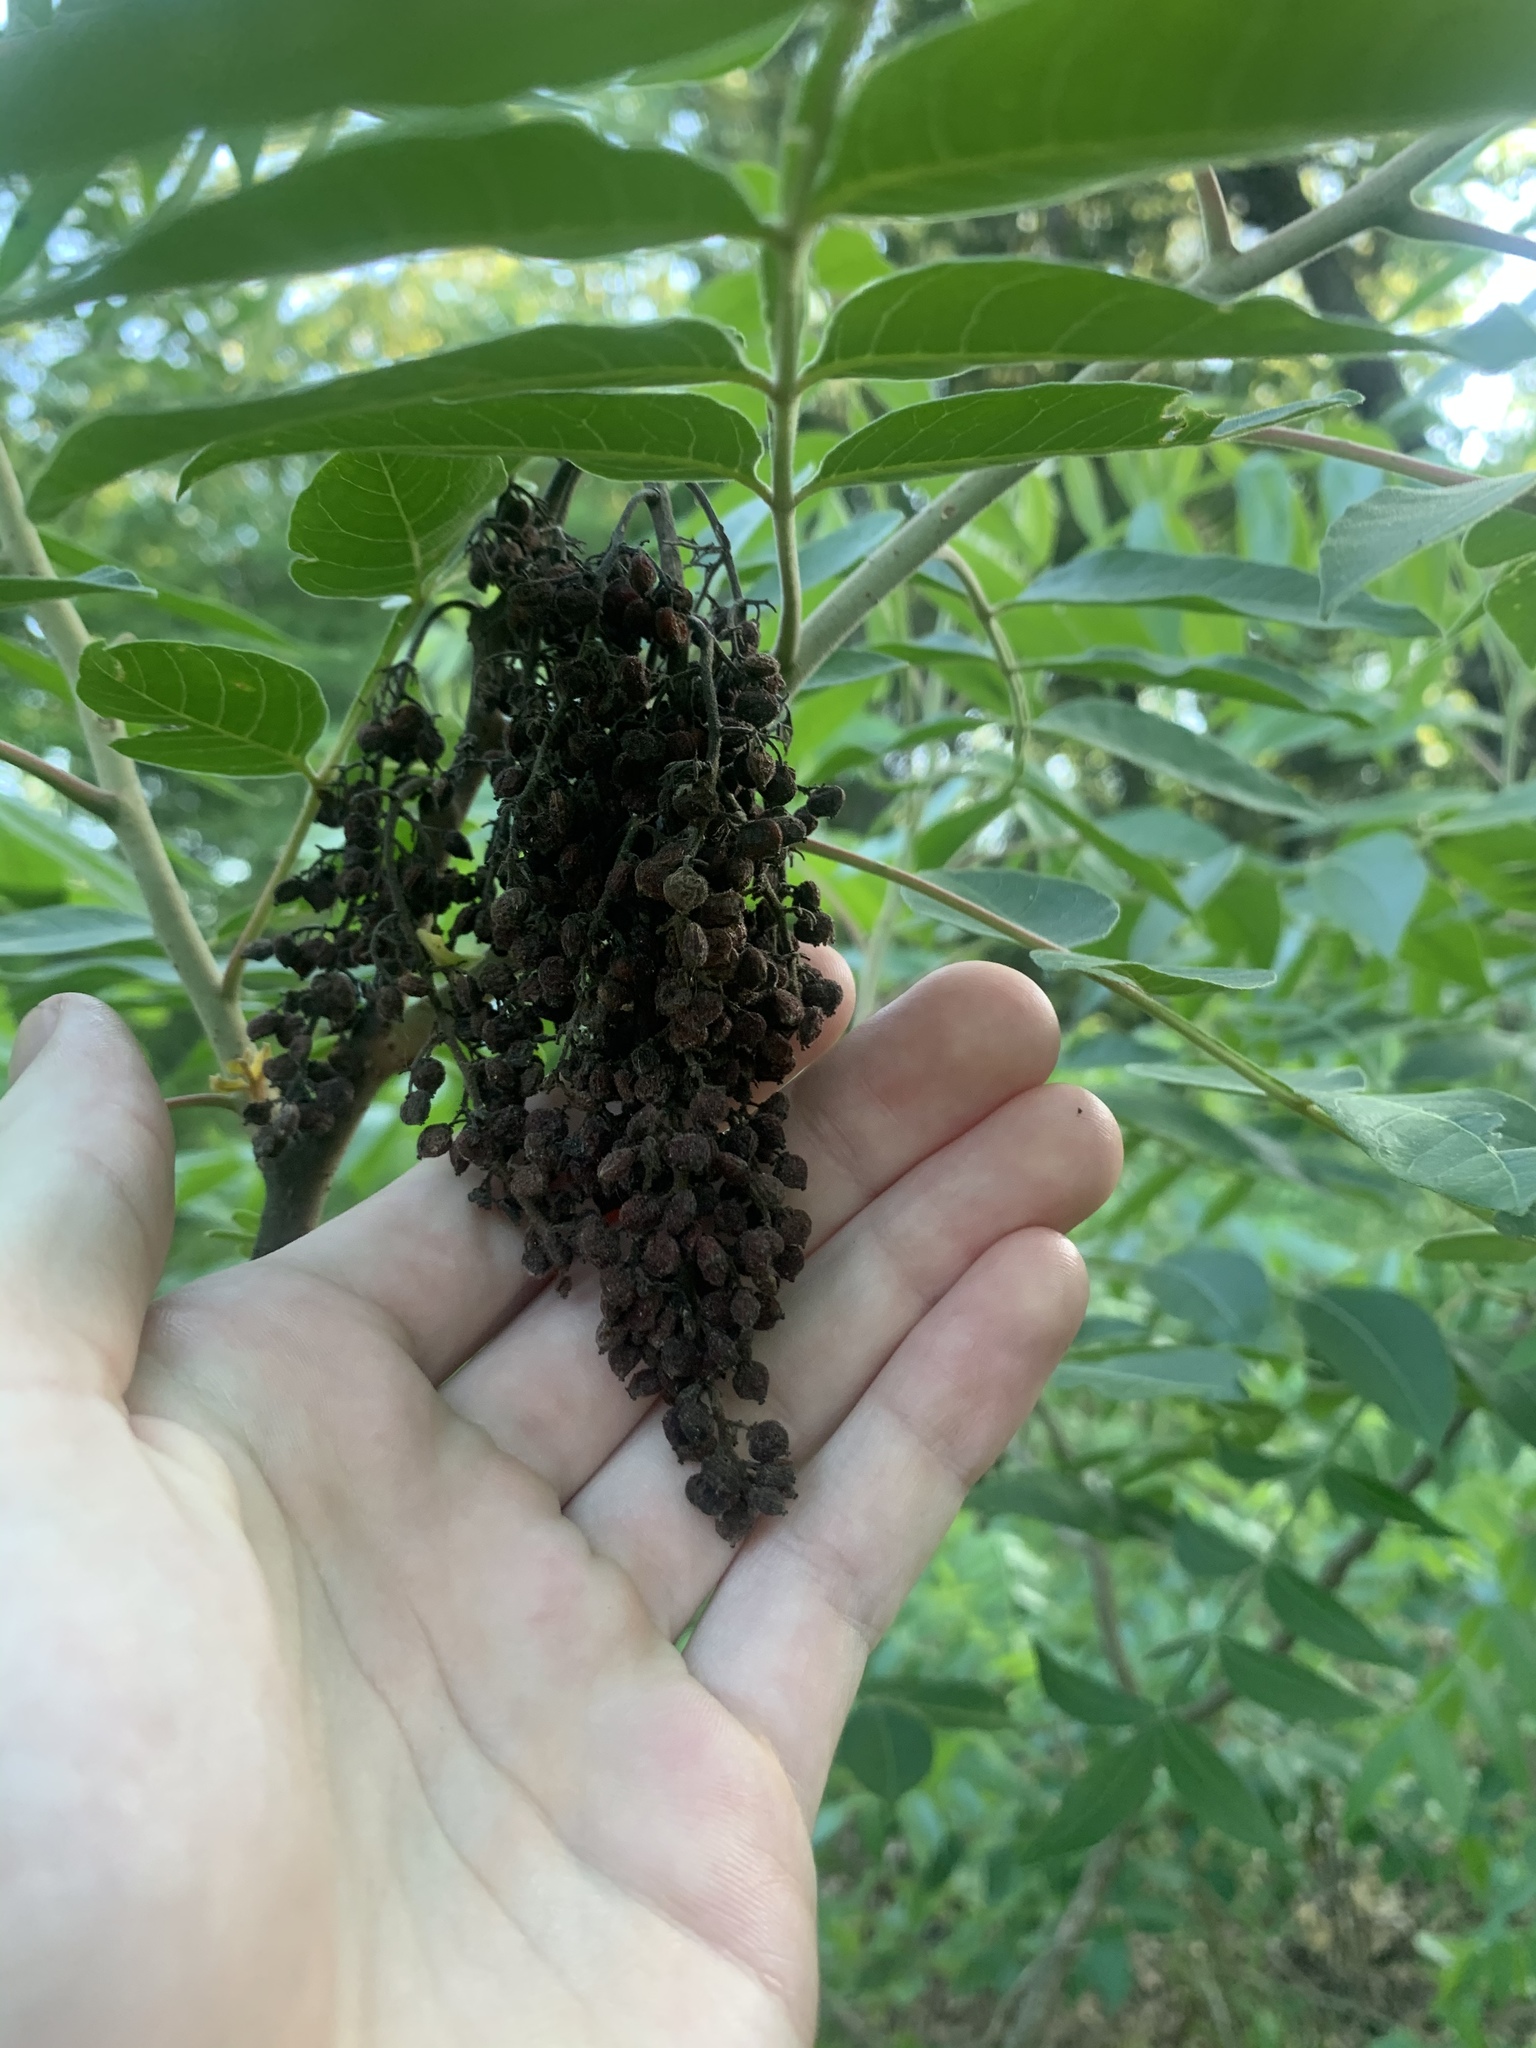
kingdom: Plantae
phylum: Tracheophyta
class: Magnoliopsida
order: Sapindales
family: Anacardiaceae
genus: Rhus
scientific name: Rhus copallina
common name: Shining sumac
